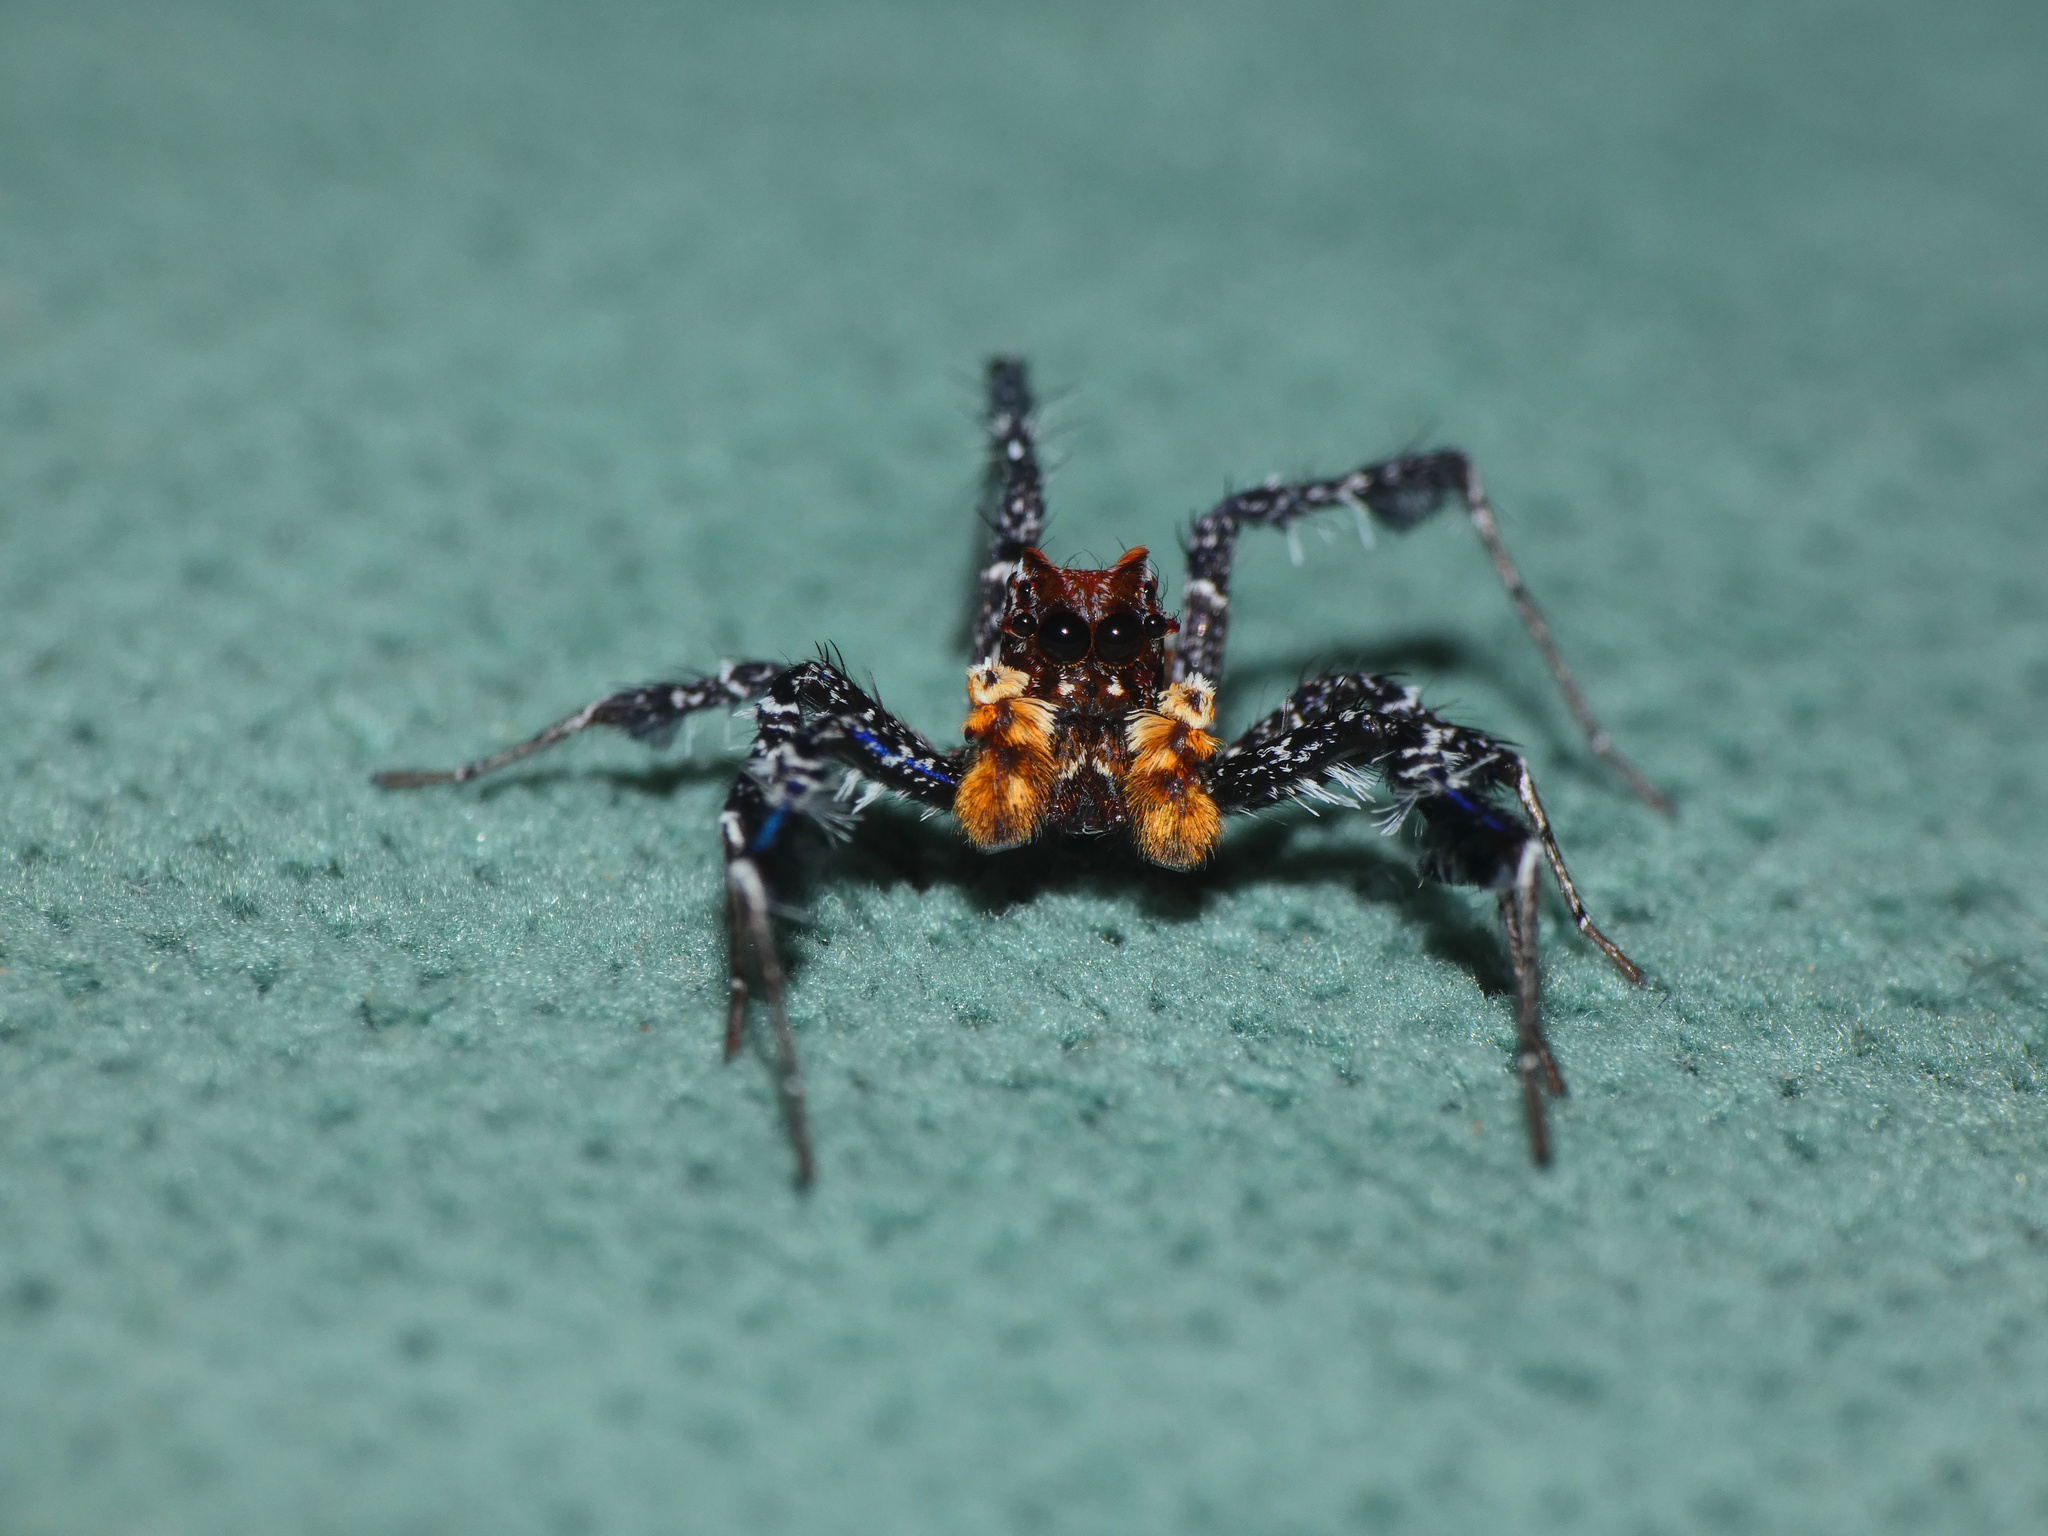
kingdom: Animalia
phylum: Arthropoda
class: Arachnida
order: Araneae
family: Salticidae
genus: Portia
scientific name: Portia schultzi
